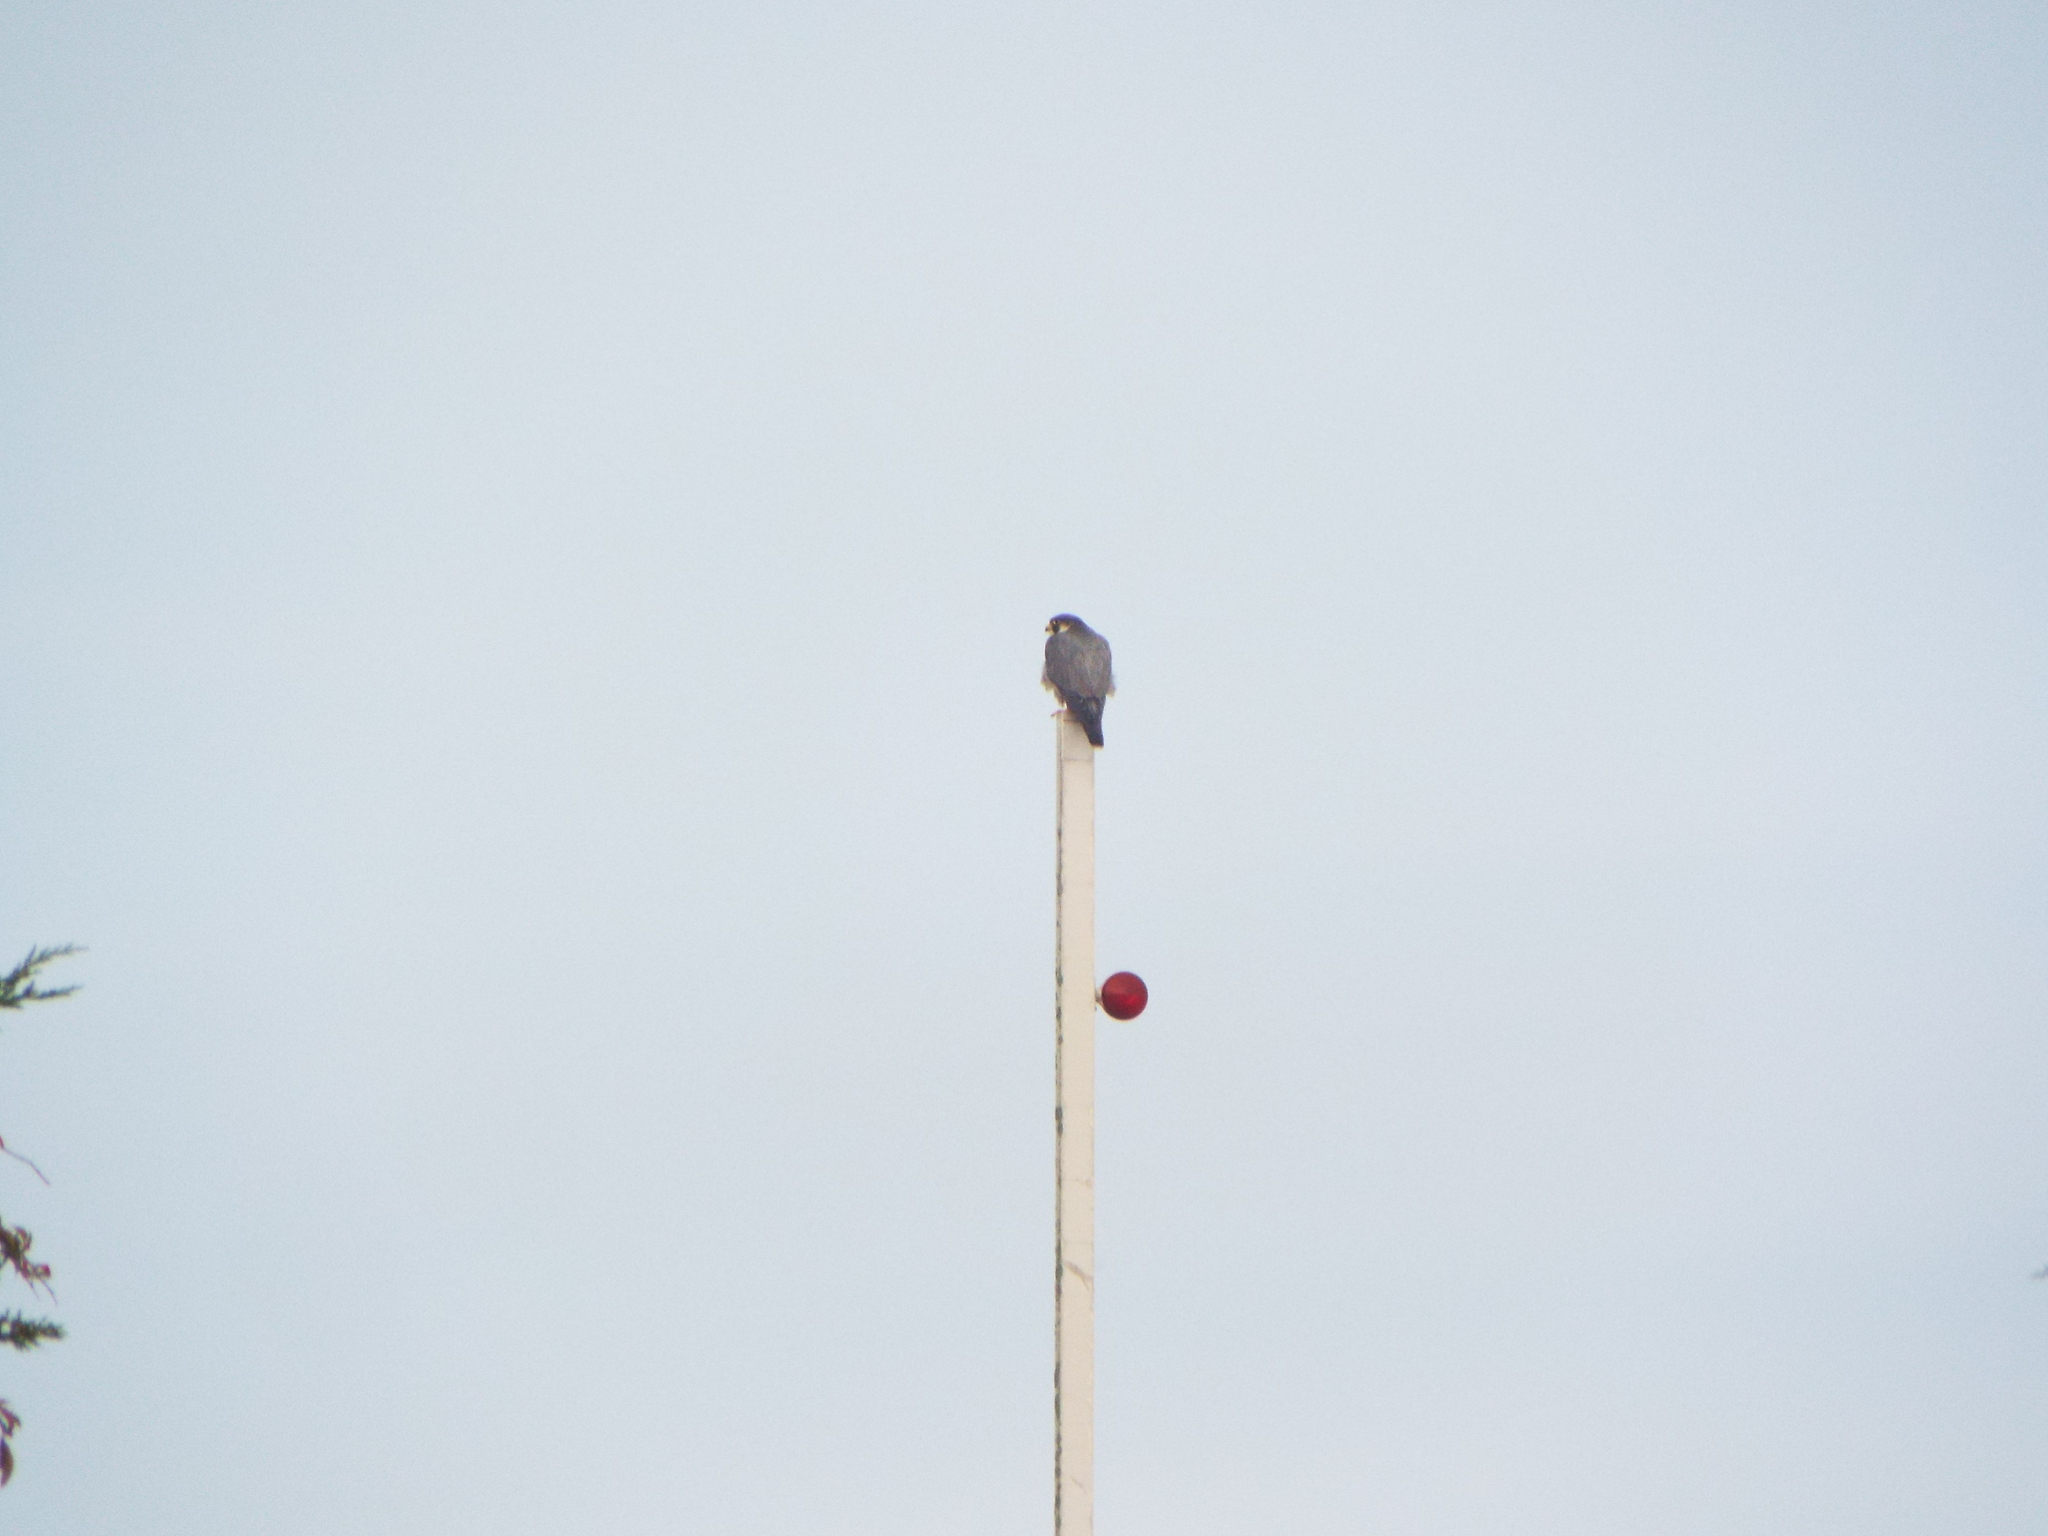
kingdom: Animalia
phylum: Chordata
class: Aves
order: Falconiformes
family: Falconidae
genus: Falco
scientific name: Falco peregrinus
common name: Peregrine falcon
